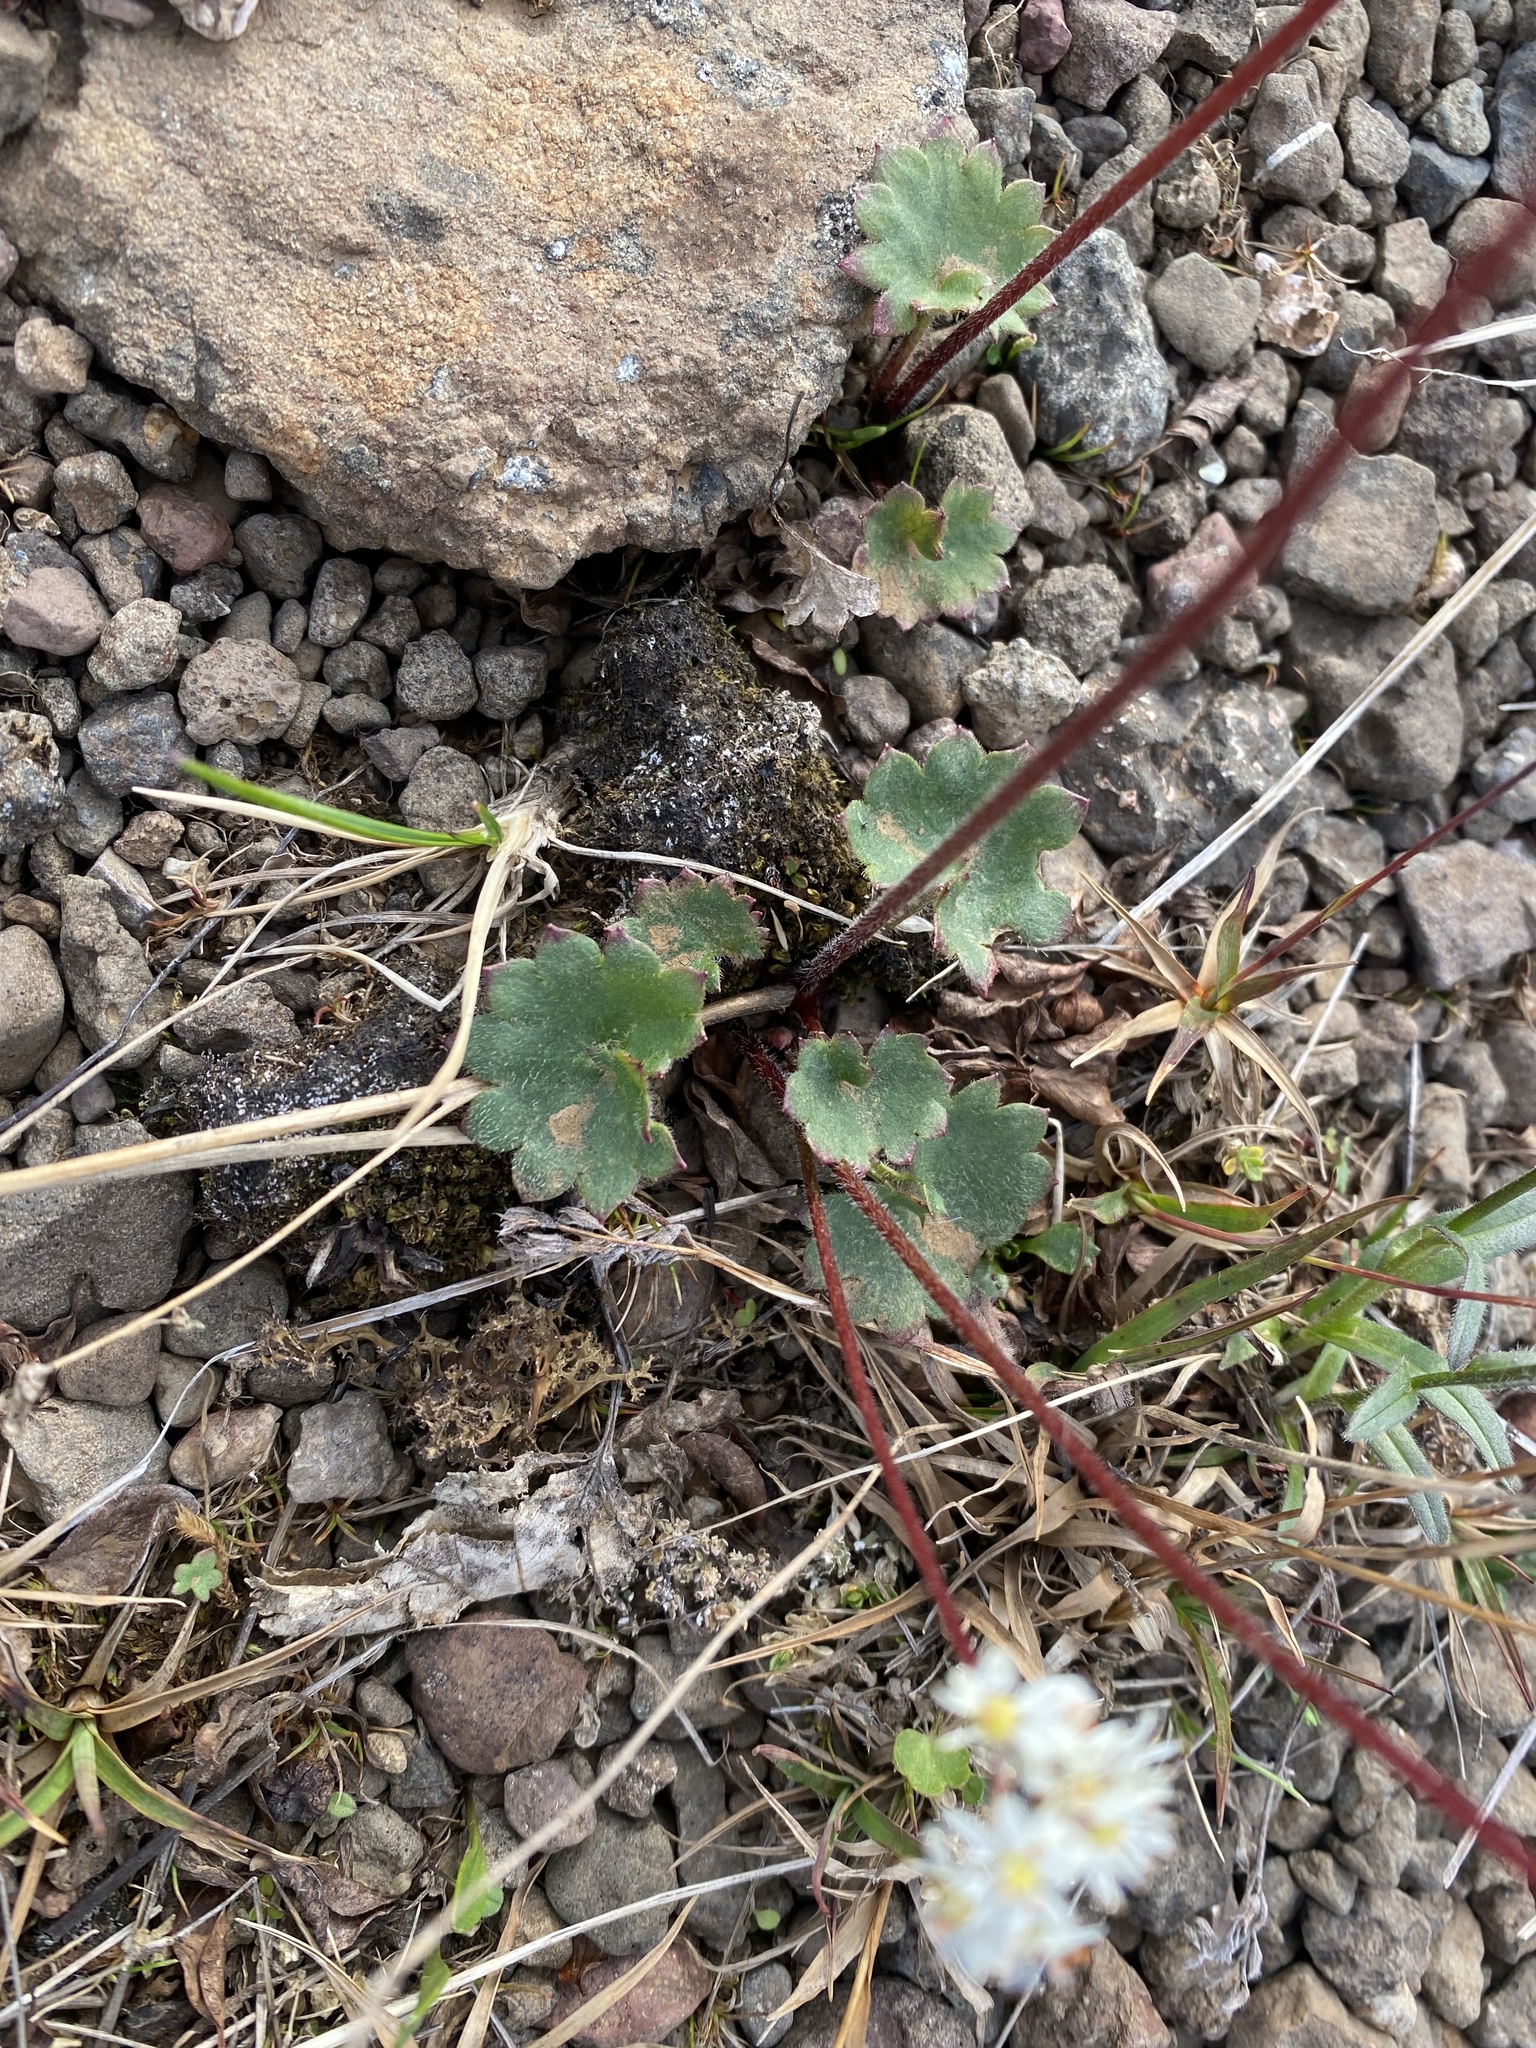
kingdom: Plantae
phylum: Tracheophyta
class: Magnoliopsida
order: Saxifragales
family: Saxifragaceae
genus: Micranthes
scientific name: Micranthes nelsoniana
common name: Nelson's saxifrage
